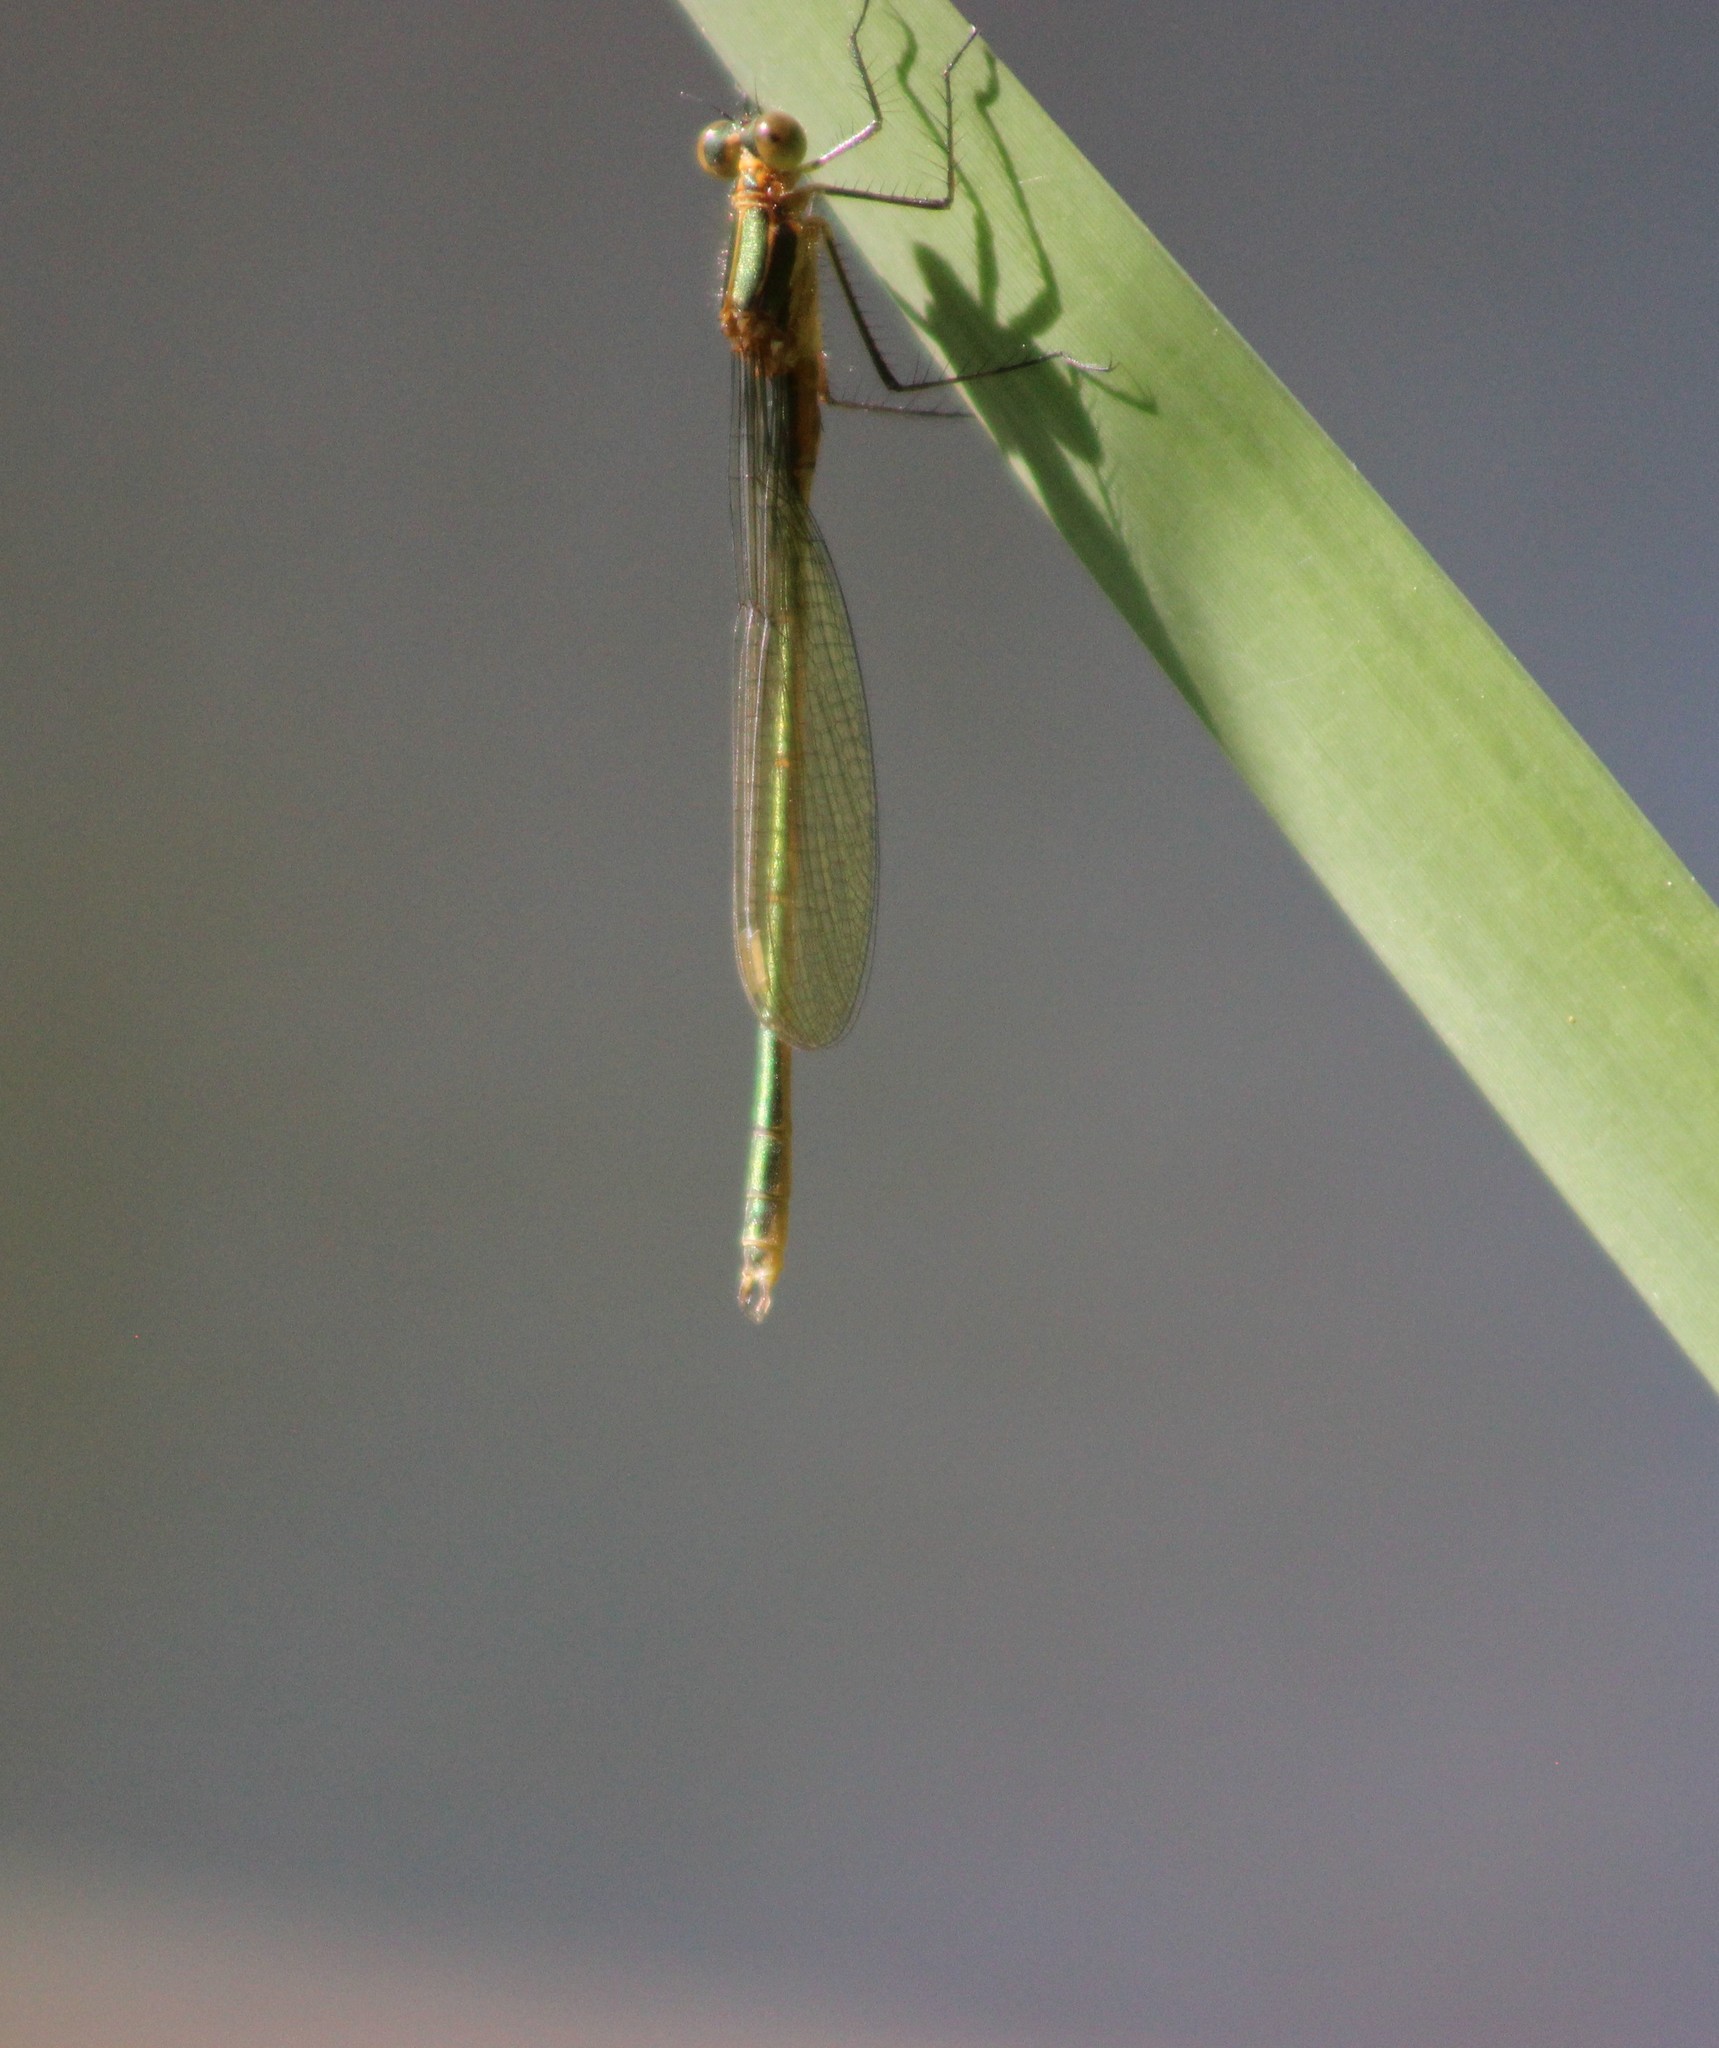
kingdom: Animalia
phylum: Arthropoda
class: Insecta
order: Odonata
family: Lestidae
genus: Lestes
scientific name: Lestes sponsa
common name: Common spreadwing
